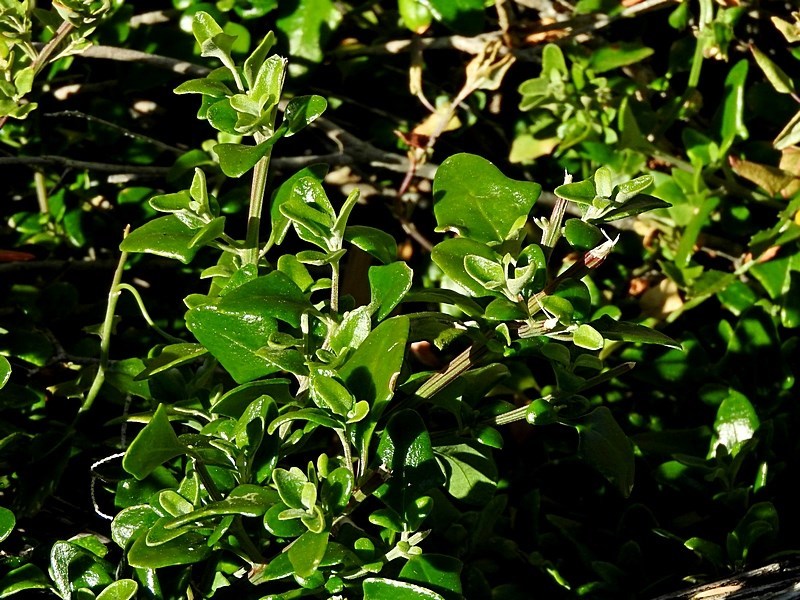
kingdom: Plantae
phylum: Tracheophyta
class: Magnoliopsida
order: Caryophyllales
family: Amaranthaceae
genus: Chenopodium
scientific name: Chenopodium candolleanum
